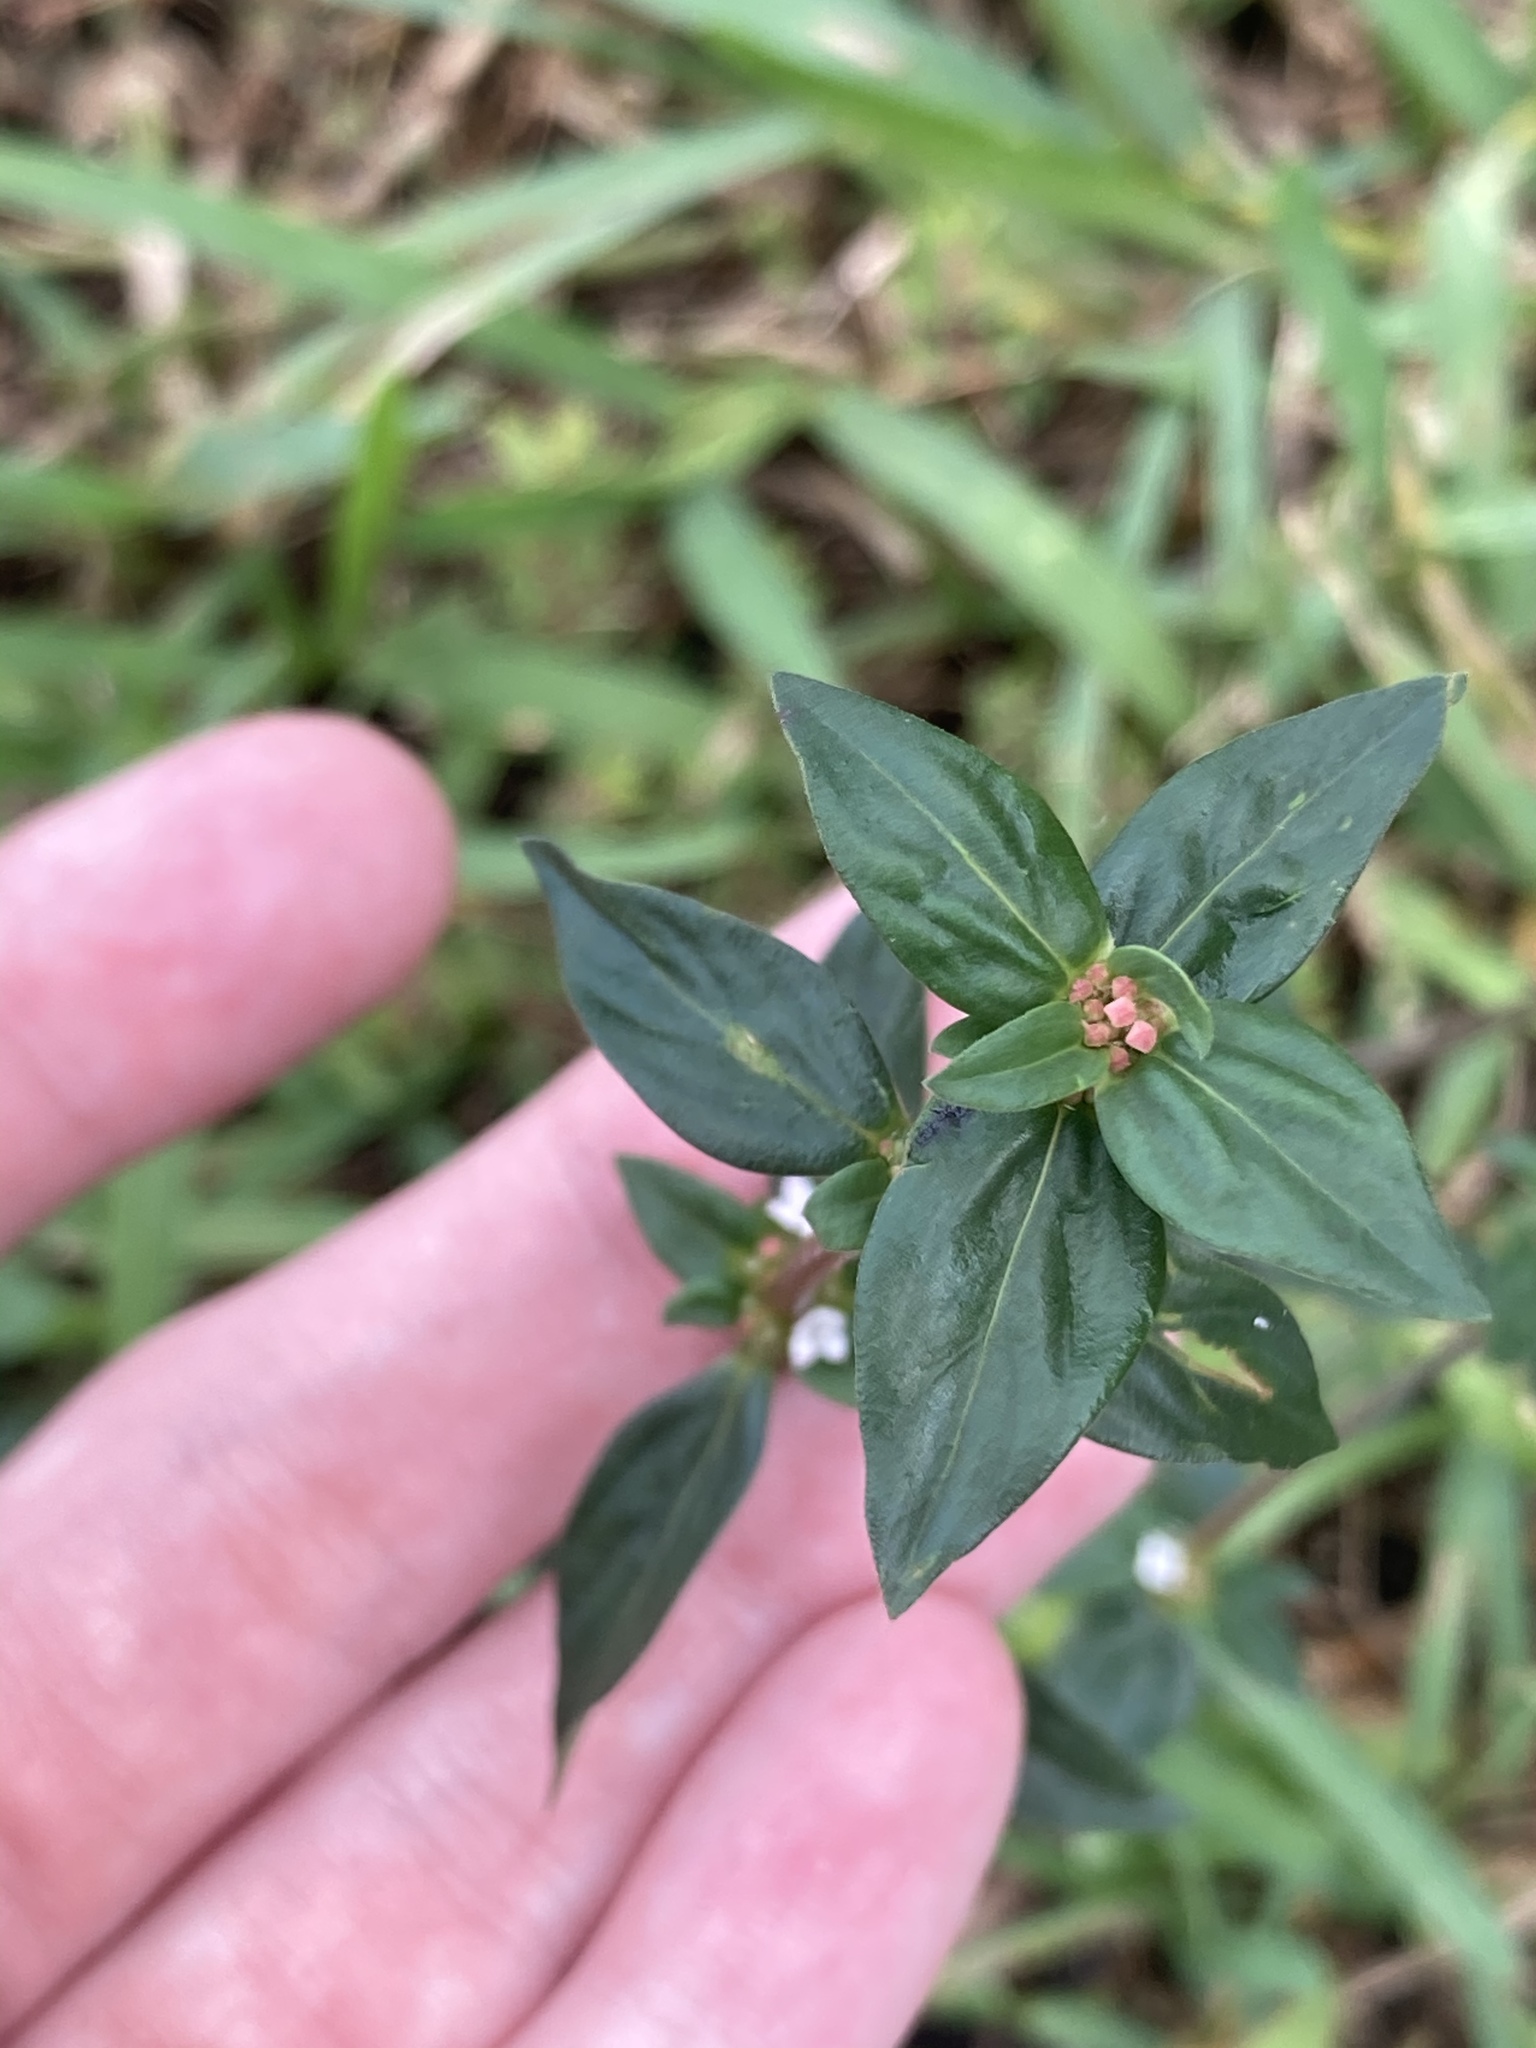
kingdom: Plantae
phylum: Tracheophyta
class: Magnoliopsida
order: Gentianales
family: Rubiaceae
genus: Spermacoce
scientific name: Spermacoce remota
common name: Woodland false buttonweed
